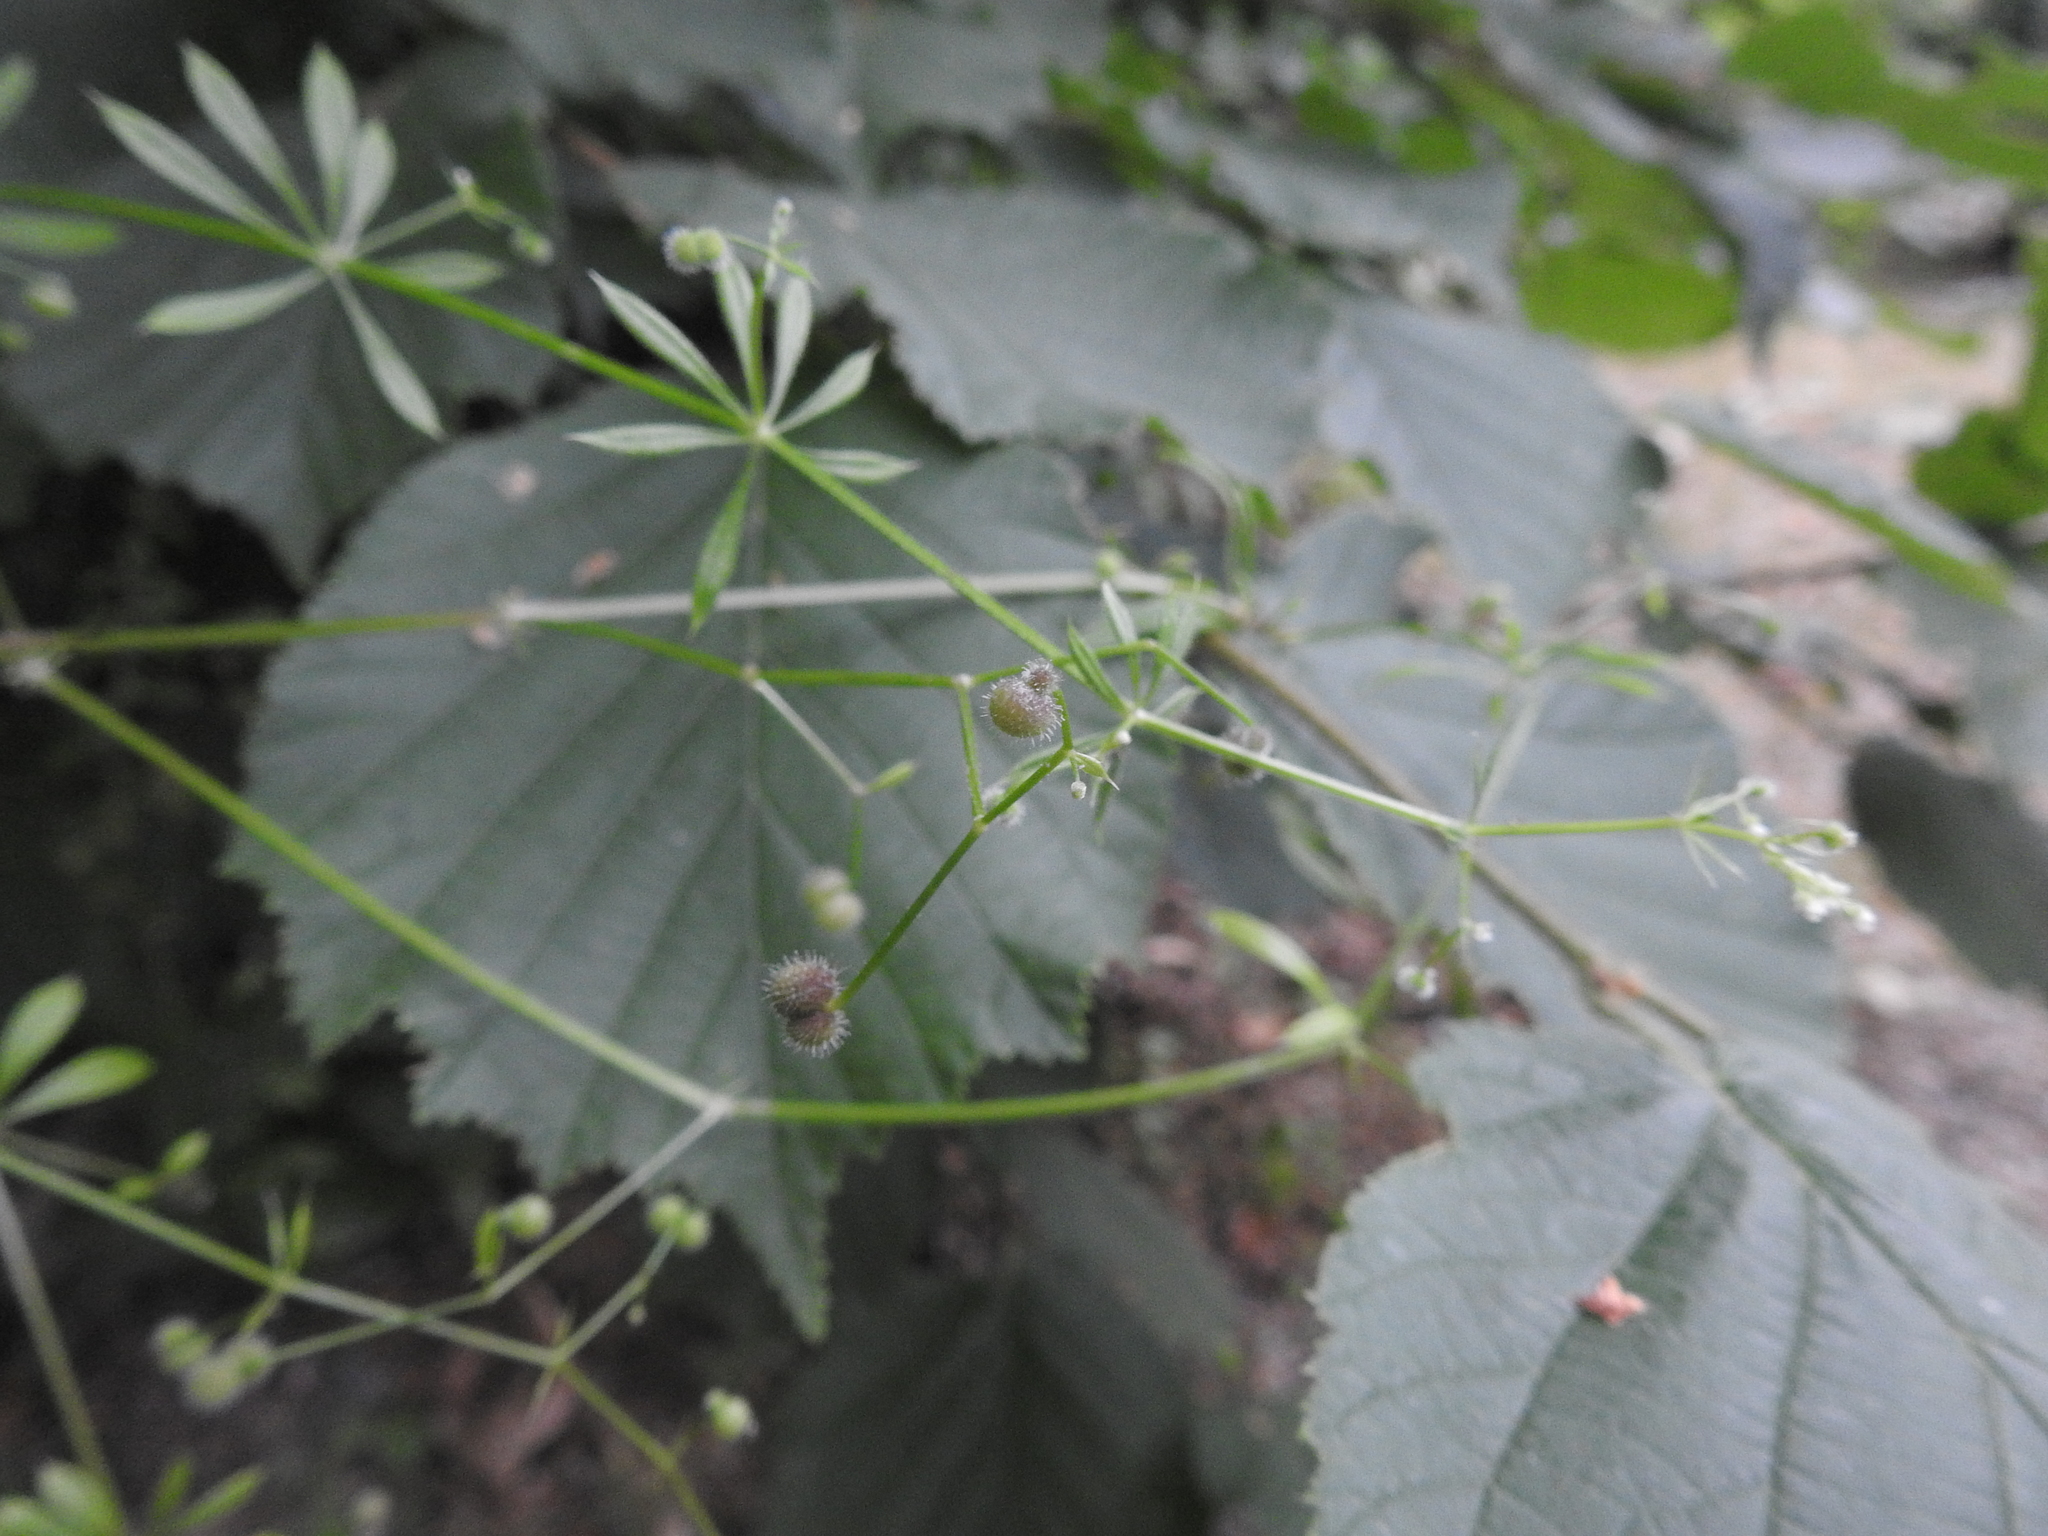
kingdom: Plantae
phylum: Tracheophyta
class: Magnoliopsida
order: Gentianales
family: Rubiaceae
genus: Galium
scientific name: Galium aparine
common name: Cleavers
